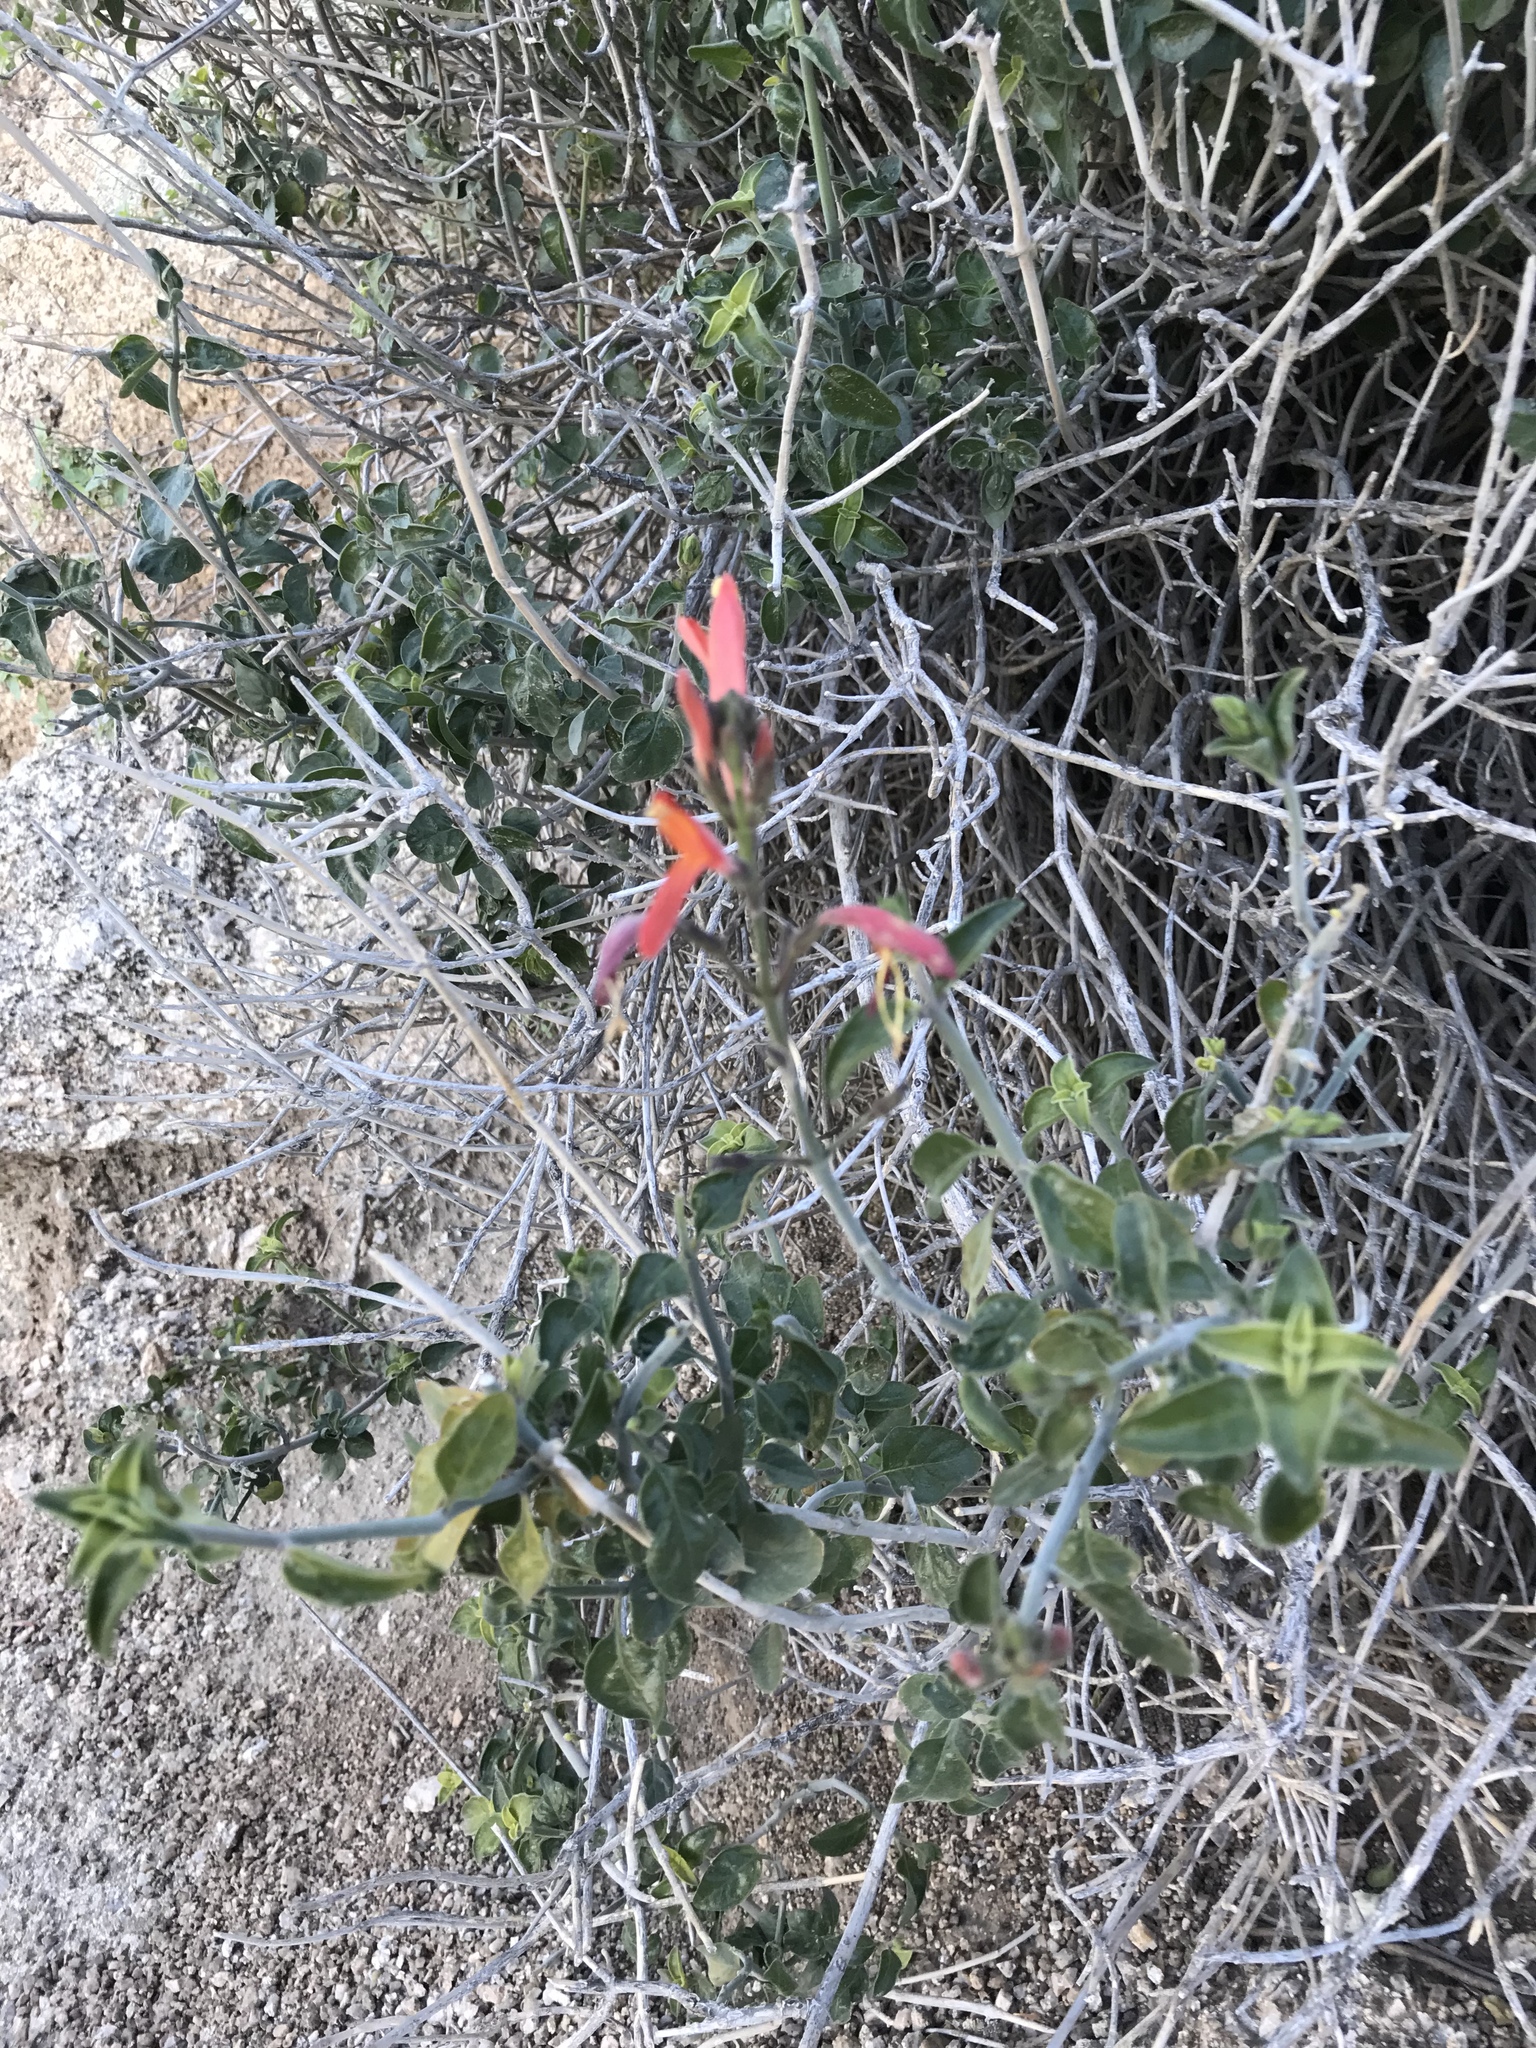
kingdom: Plantae
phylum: Tracheophyta
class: Magnoliopsida
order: Lamiales
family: Acanthaceae
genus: Justicia
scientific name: Justicia californica
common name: Chuparosa-honeysuckle
